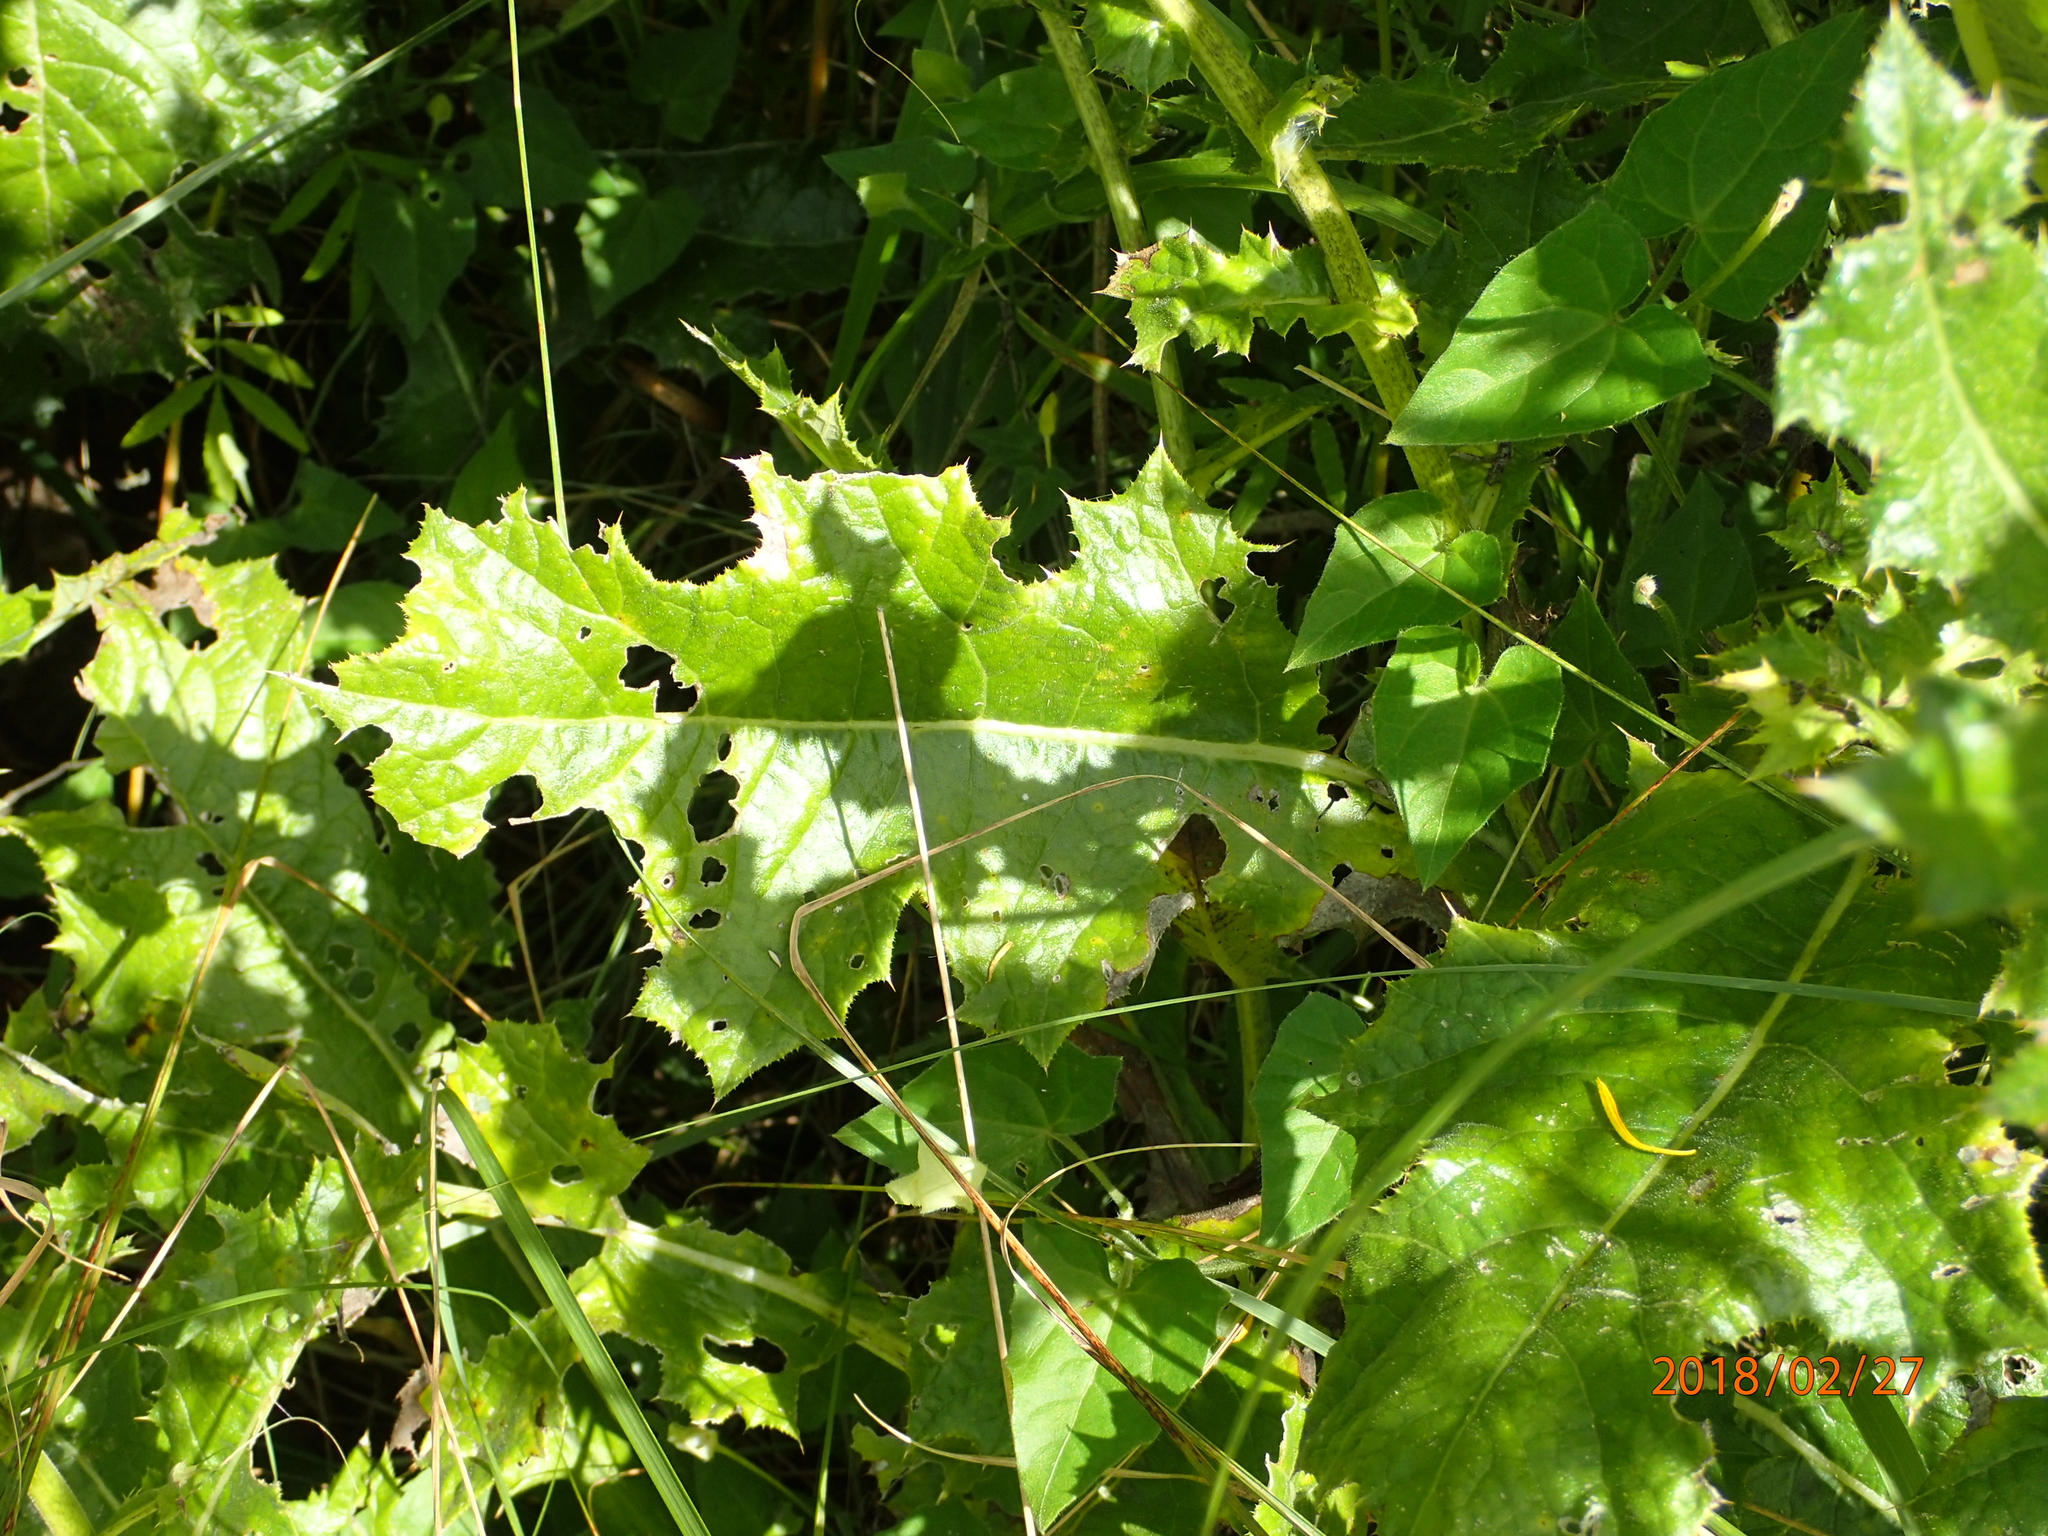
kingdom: Plantae
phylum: Tracheophyta
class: Magnoliopsida
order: Asterales
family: Asteraceae
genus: Berkheya
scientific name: Berkheya erysithales
